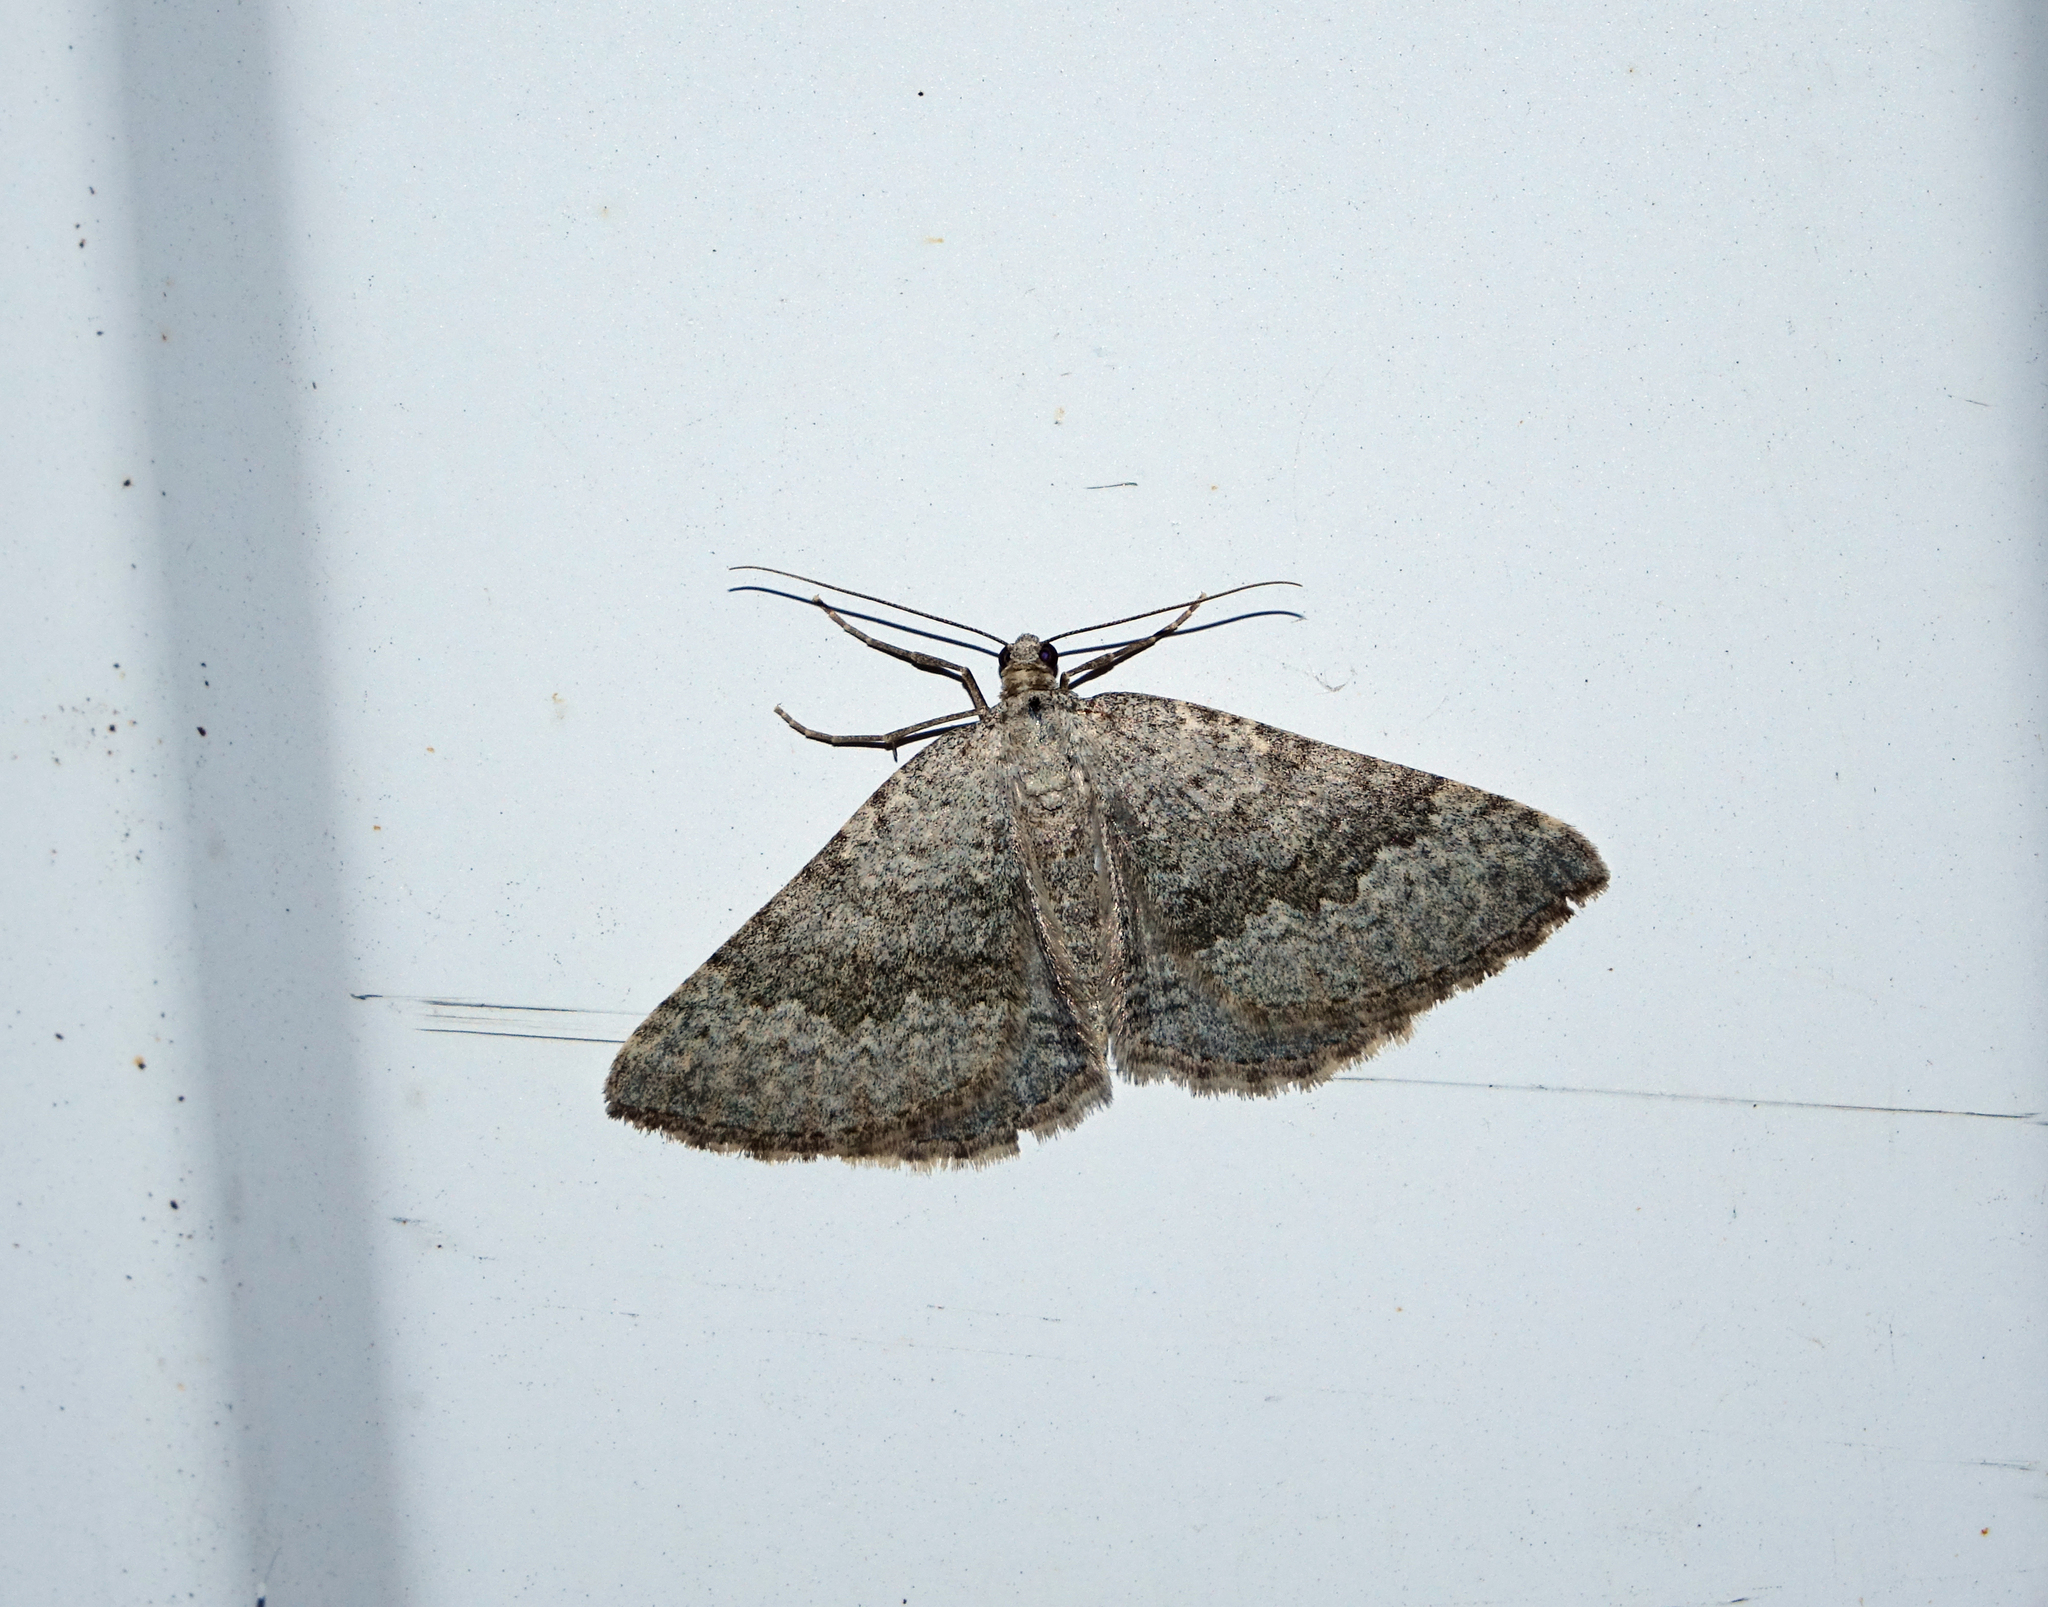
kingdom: Animalia
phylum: Arthropoda
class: Insecta
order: Lepidoptera
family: Geometridae
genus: Scotopteryx
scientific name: Scotopteryx
